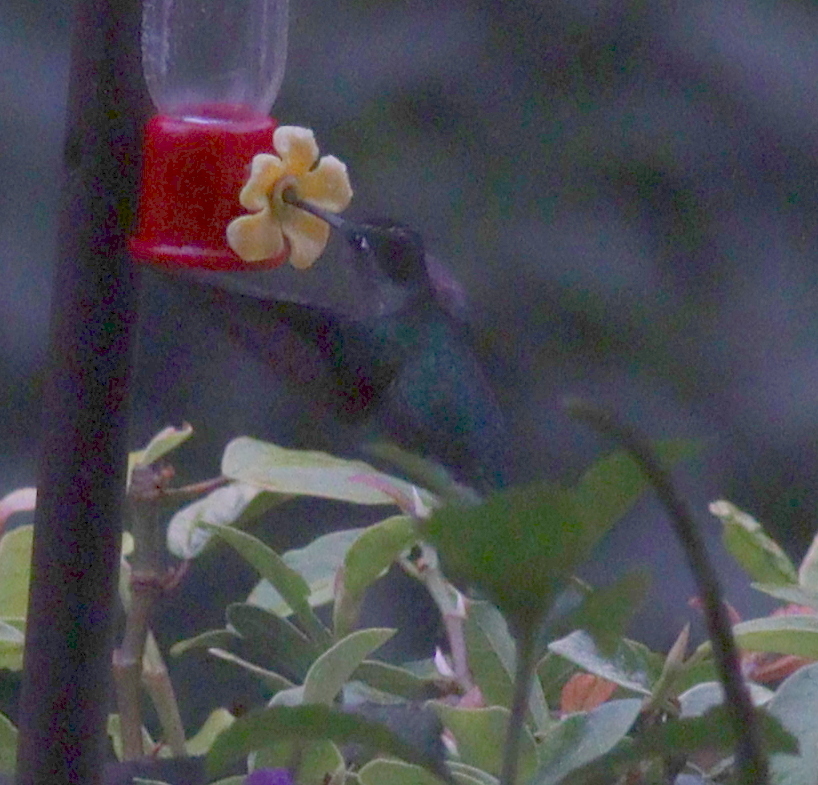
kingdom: Animalia
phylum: Chordata
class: Aves
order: Apodiformes
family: Trochilidae
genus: Eugenes
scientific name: Eugenes spectabilis
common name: Talamanca hummingbird
